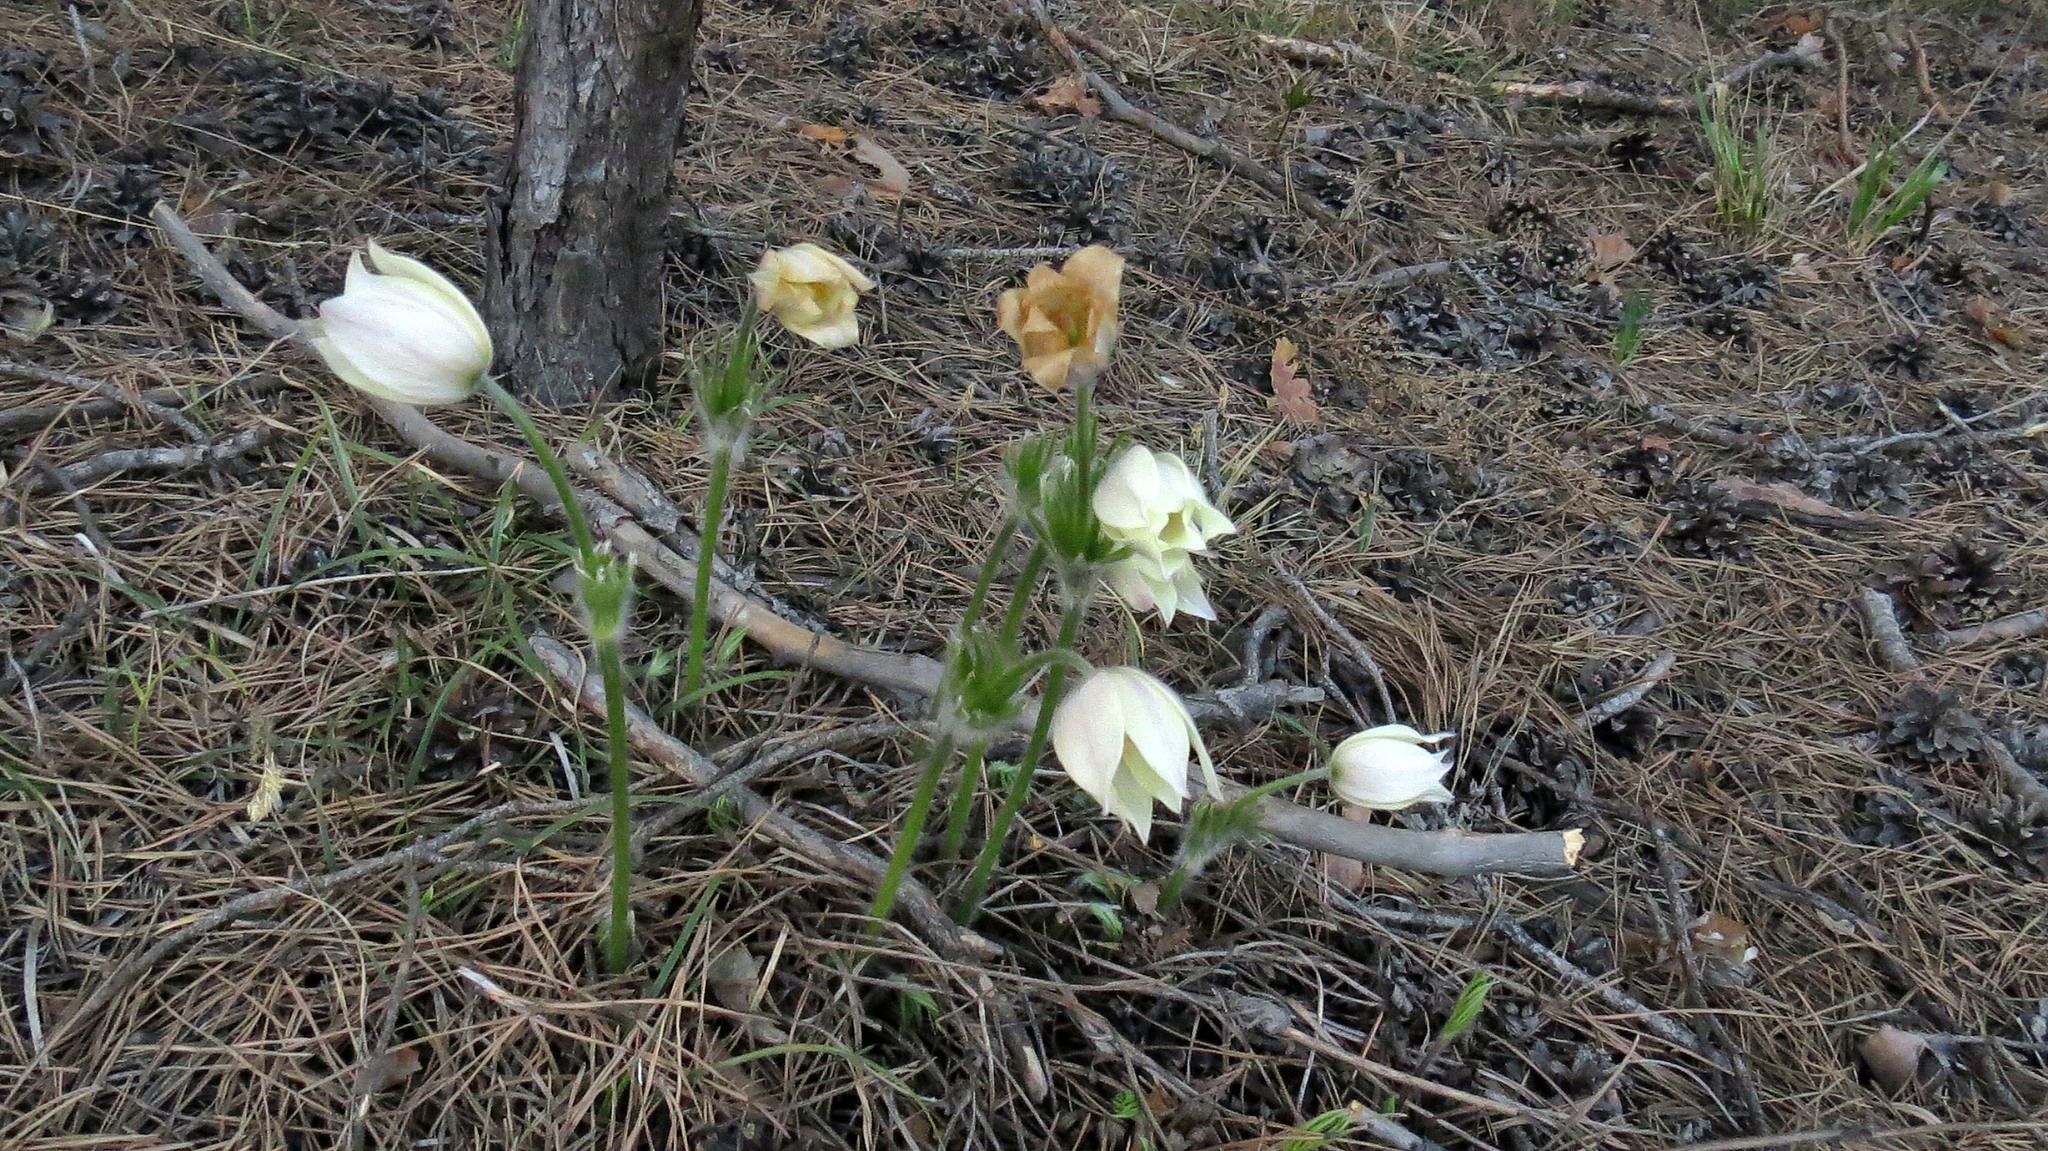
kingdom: Plantae
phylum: Tracheophyta
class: Magnoliopsida
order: Ranunculales
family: Ranunculaceae
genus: Pulsatilla
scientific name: Pulsatilla patens
